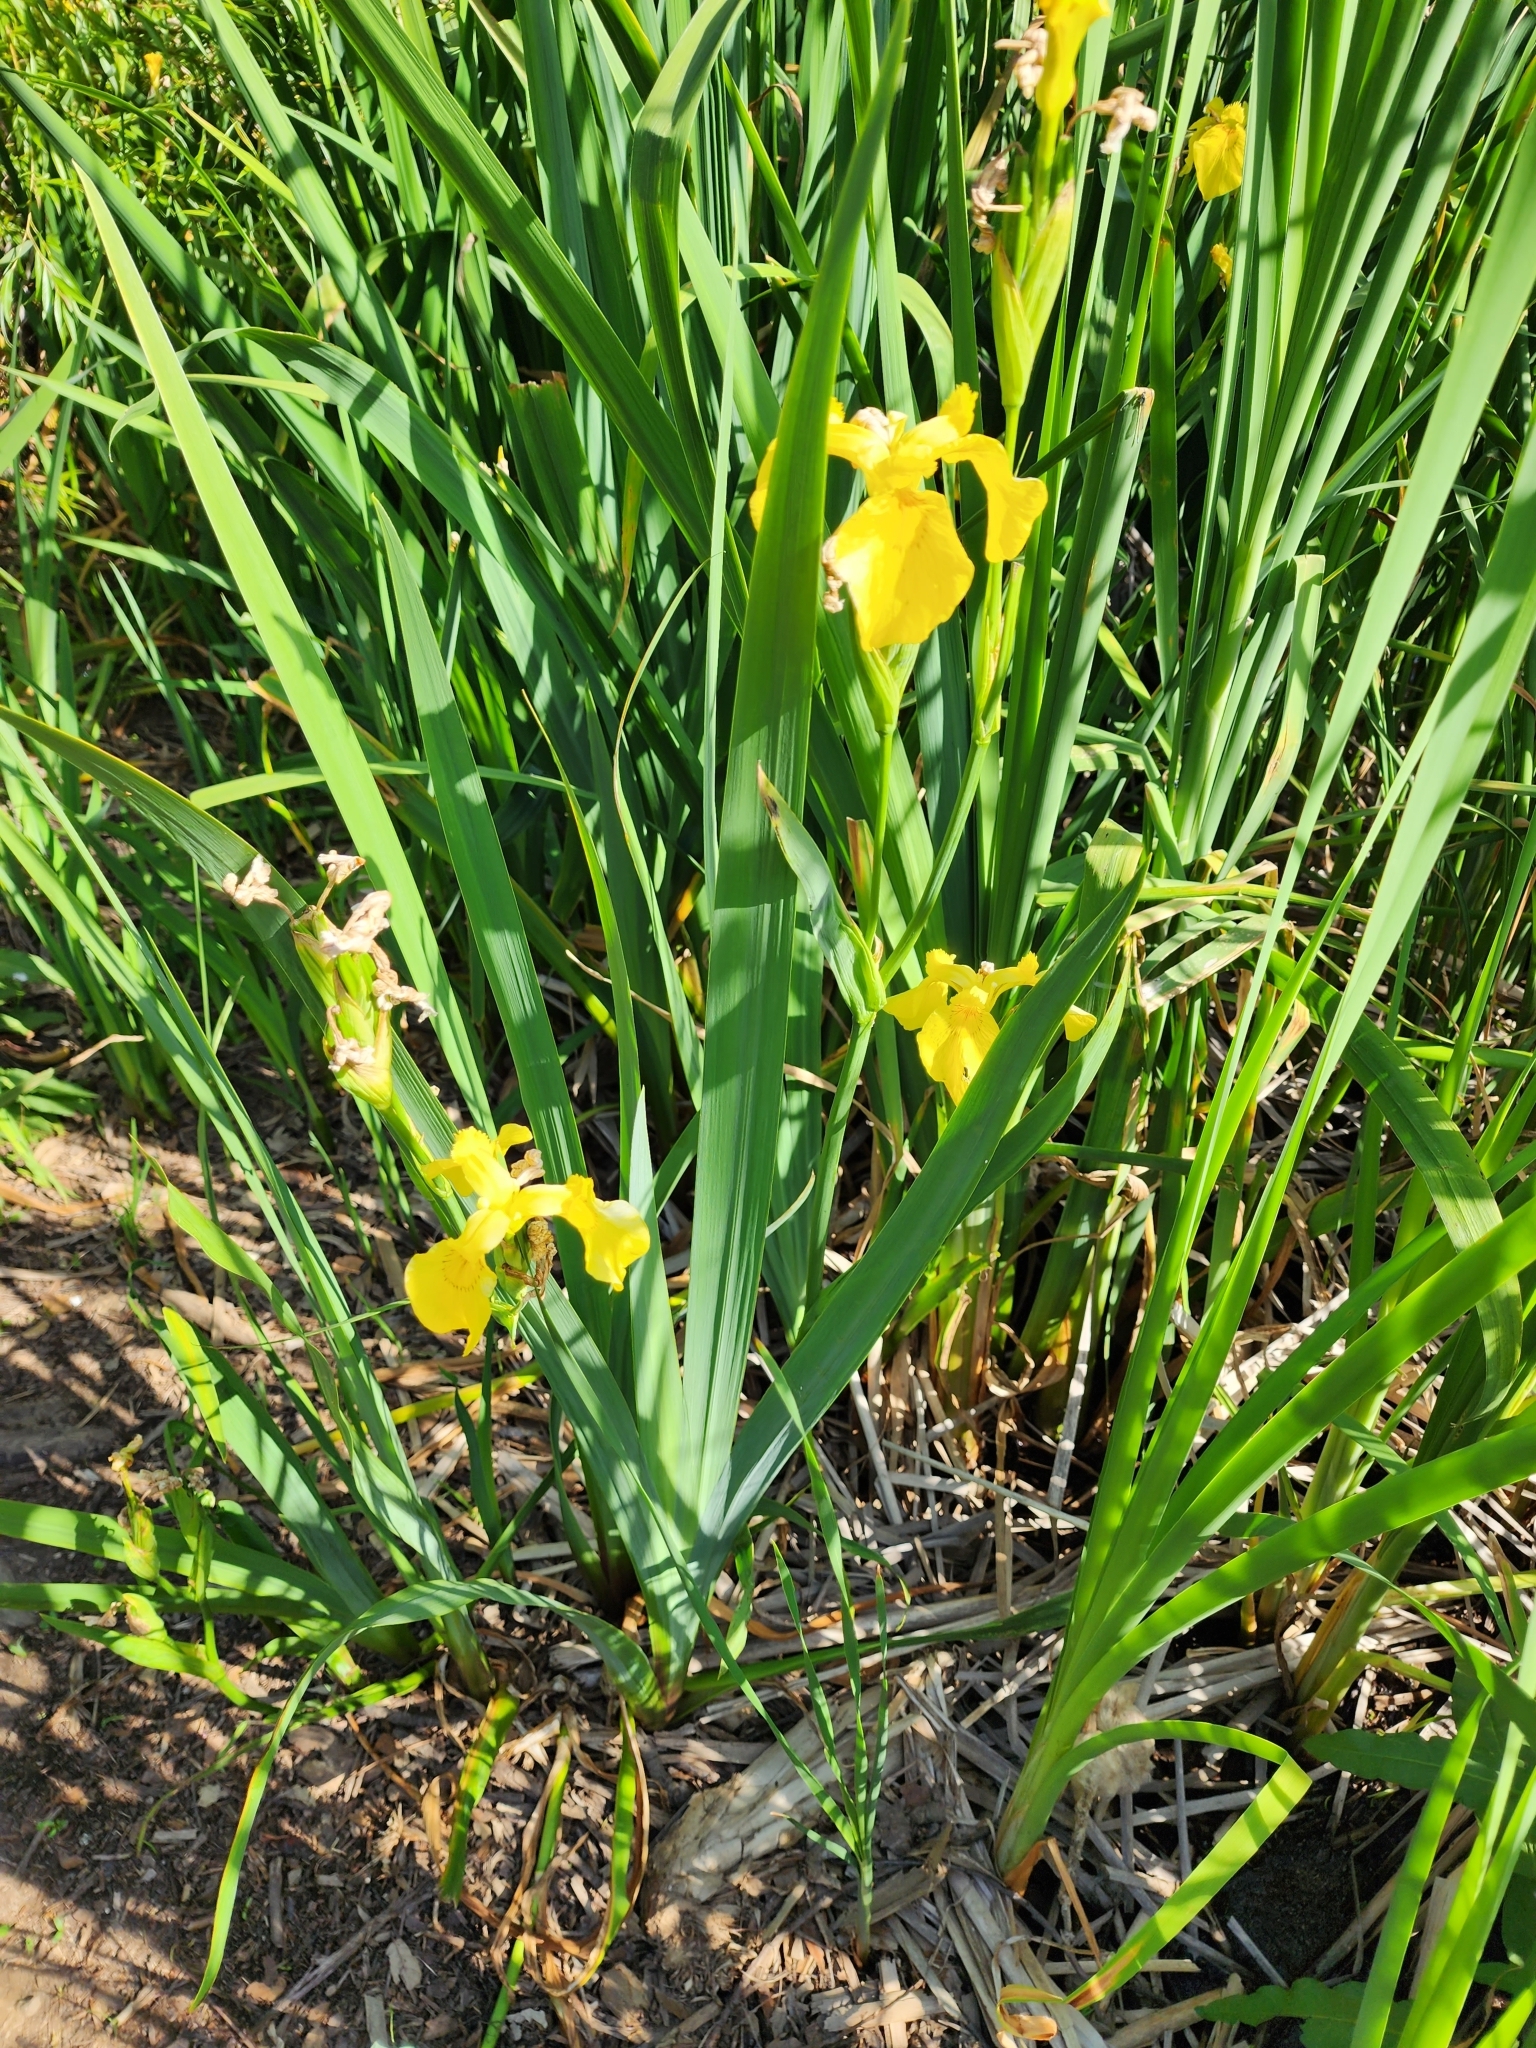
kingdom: Plantae
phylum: Tracheophyta
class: Liliopsida
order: Asparagales
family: Iridaceae
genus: Iris
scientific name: Iris pseudacorus
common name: Yellow flag
